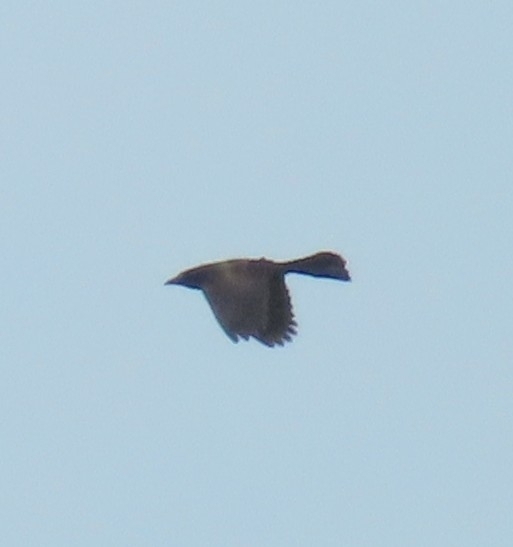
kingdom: Animalia
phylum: Chordata
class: Aves
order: Passeriformes
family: Icteridae
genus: Quiscalus
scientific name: Quiscalus quiscula
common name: Common grackle
